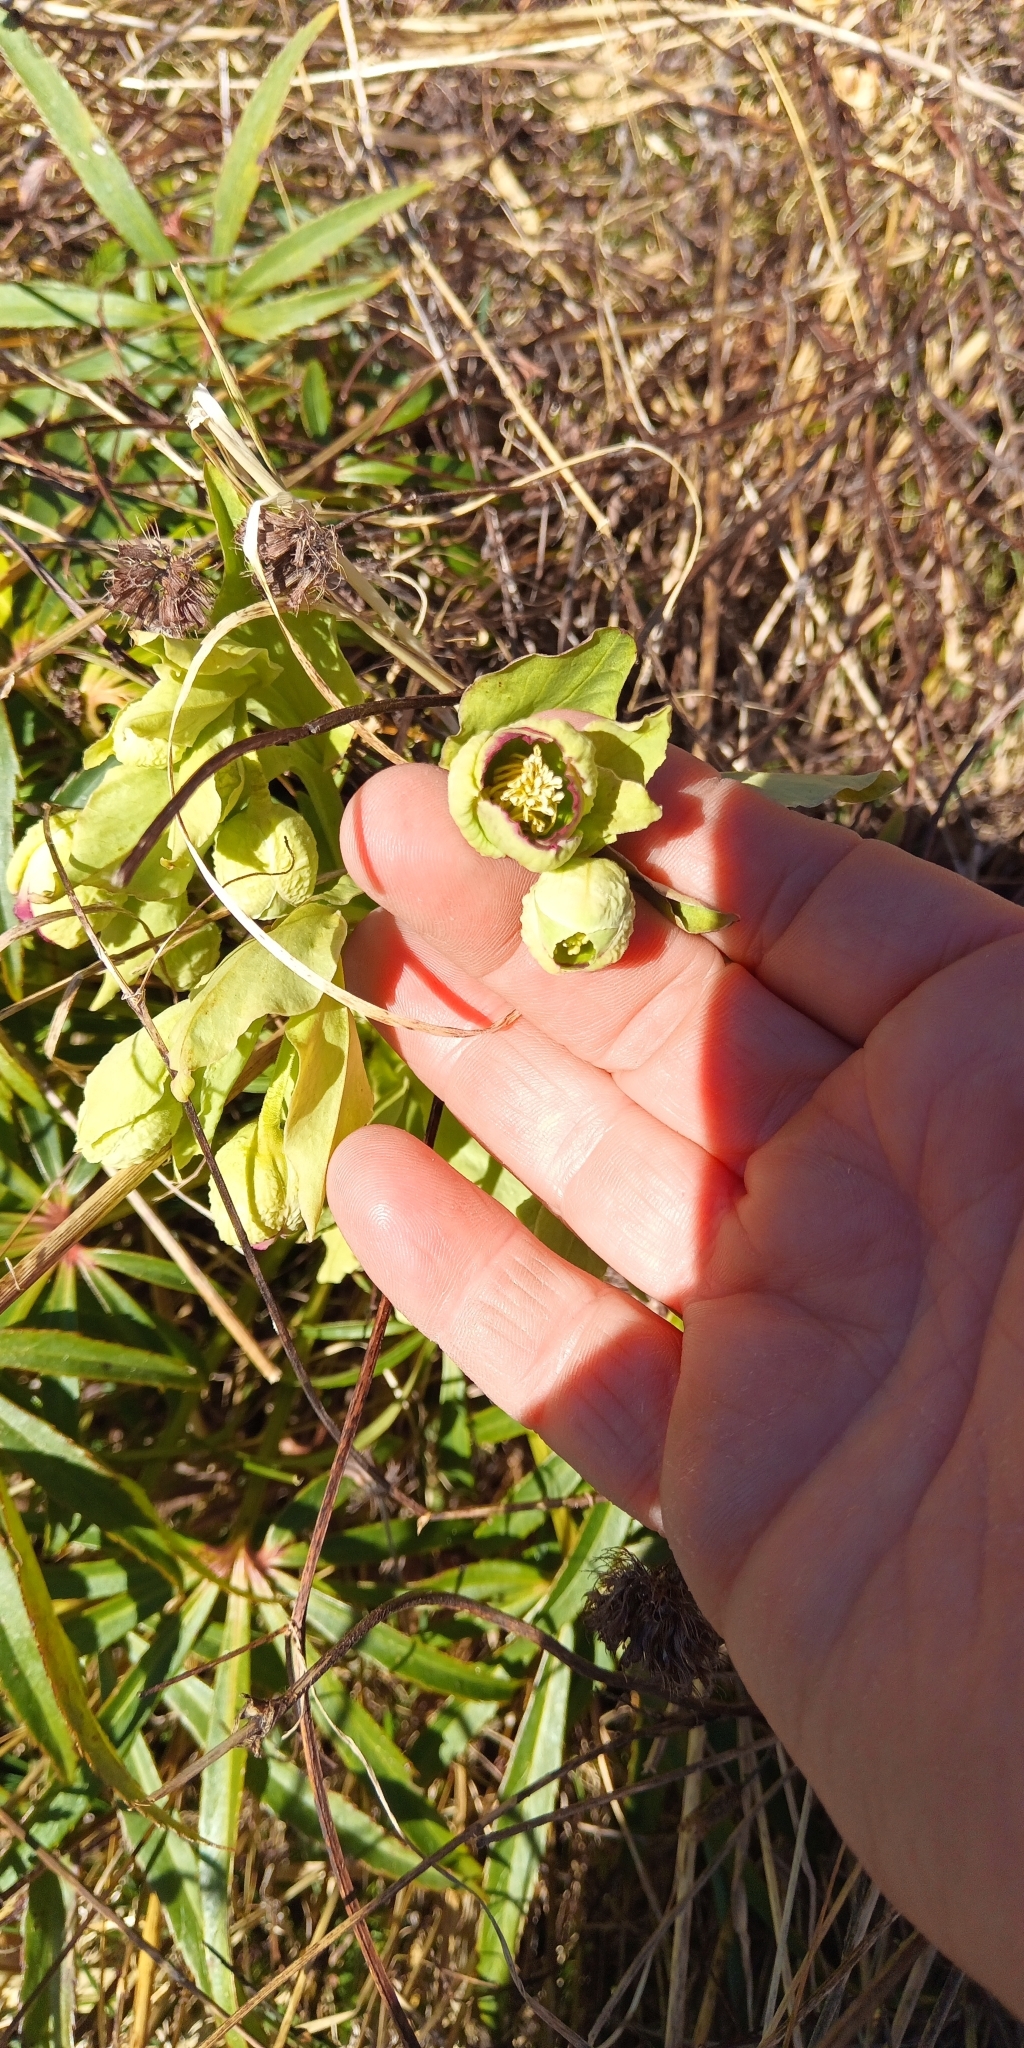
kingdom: Plantae
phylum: Tracheophyta
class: Magnoliopsida
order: Ranunculales
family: Ranunculaceae
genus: Helleborus
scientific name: Helleborus foetidus
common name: Stinking hellebore
